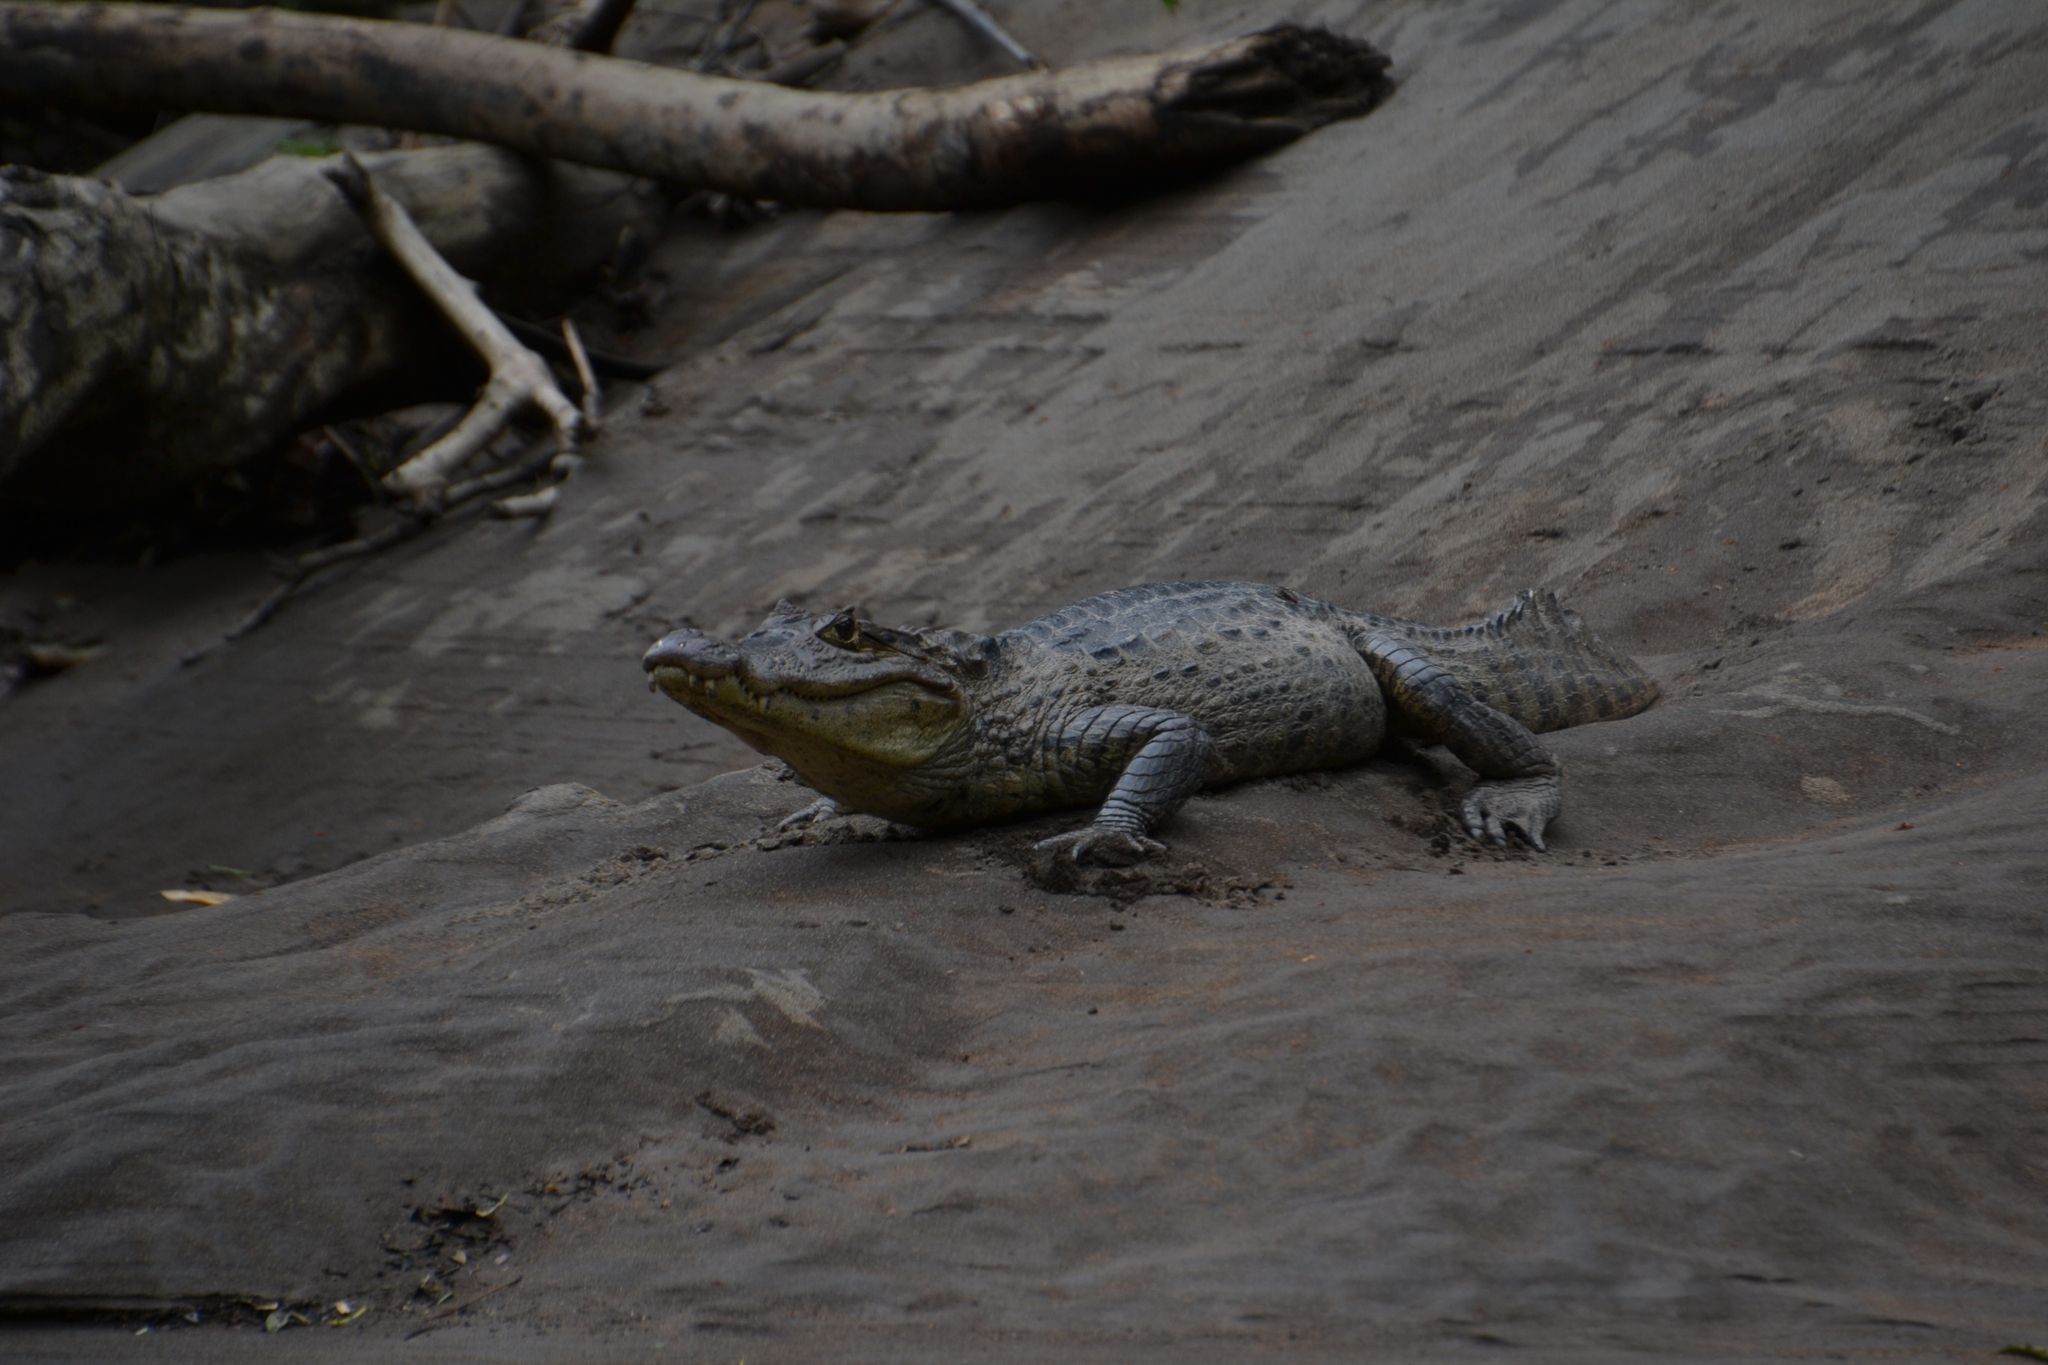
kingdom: Animalia
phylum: Chordata
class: Crocodylia
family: Alligatoridae
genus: Caiman
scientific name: Caiman crocodilus
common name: Common caiman
